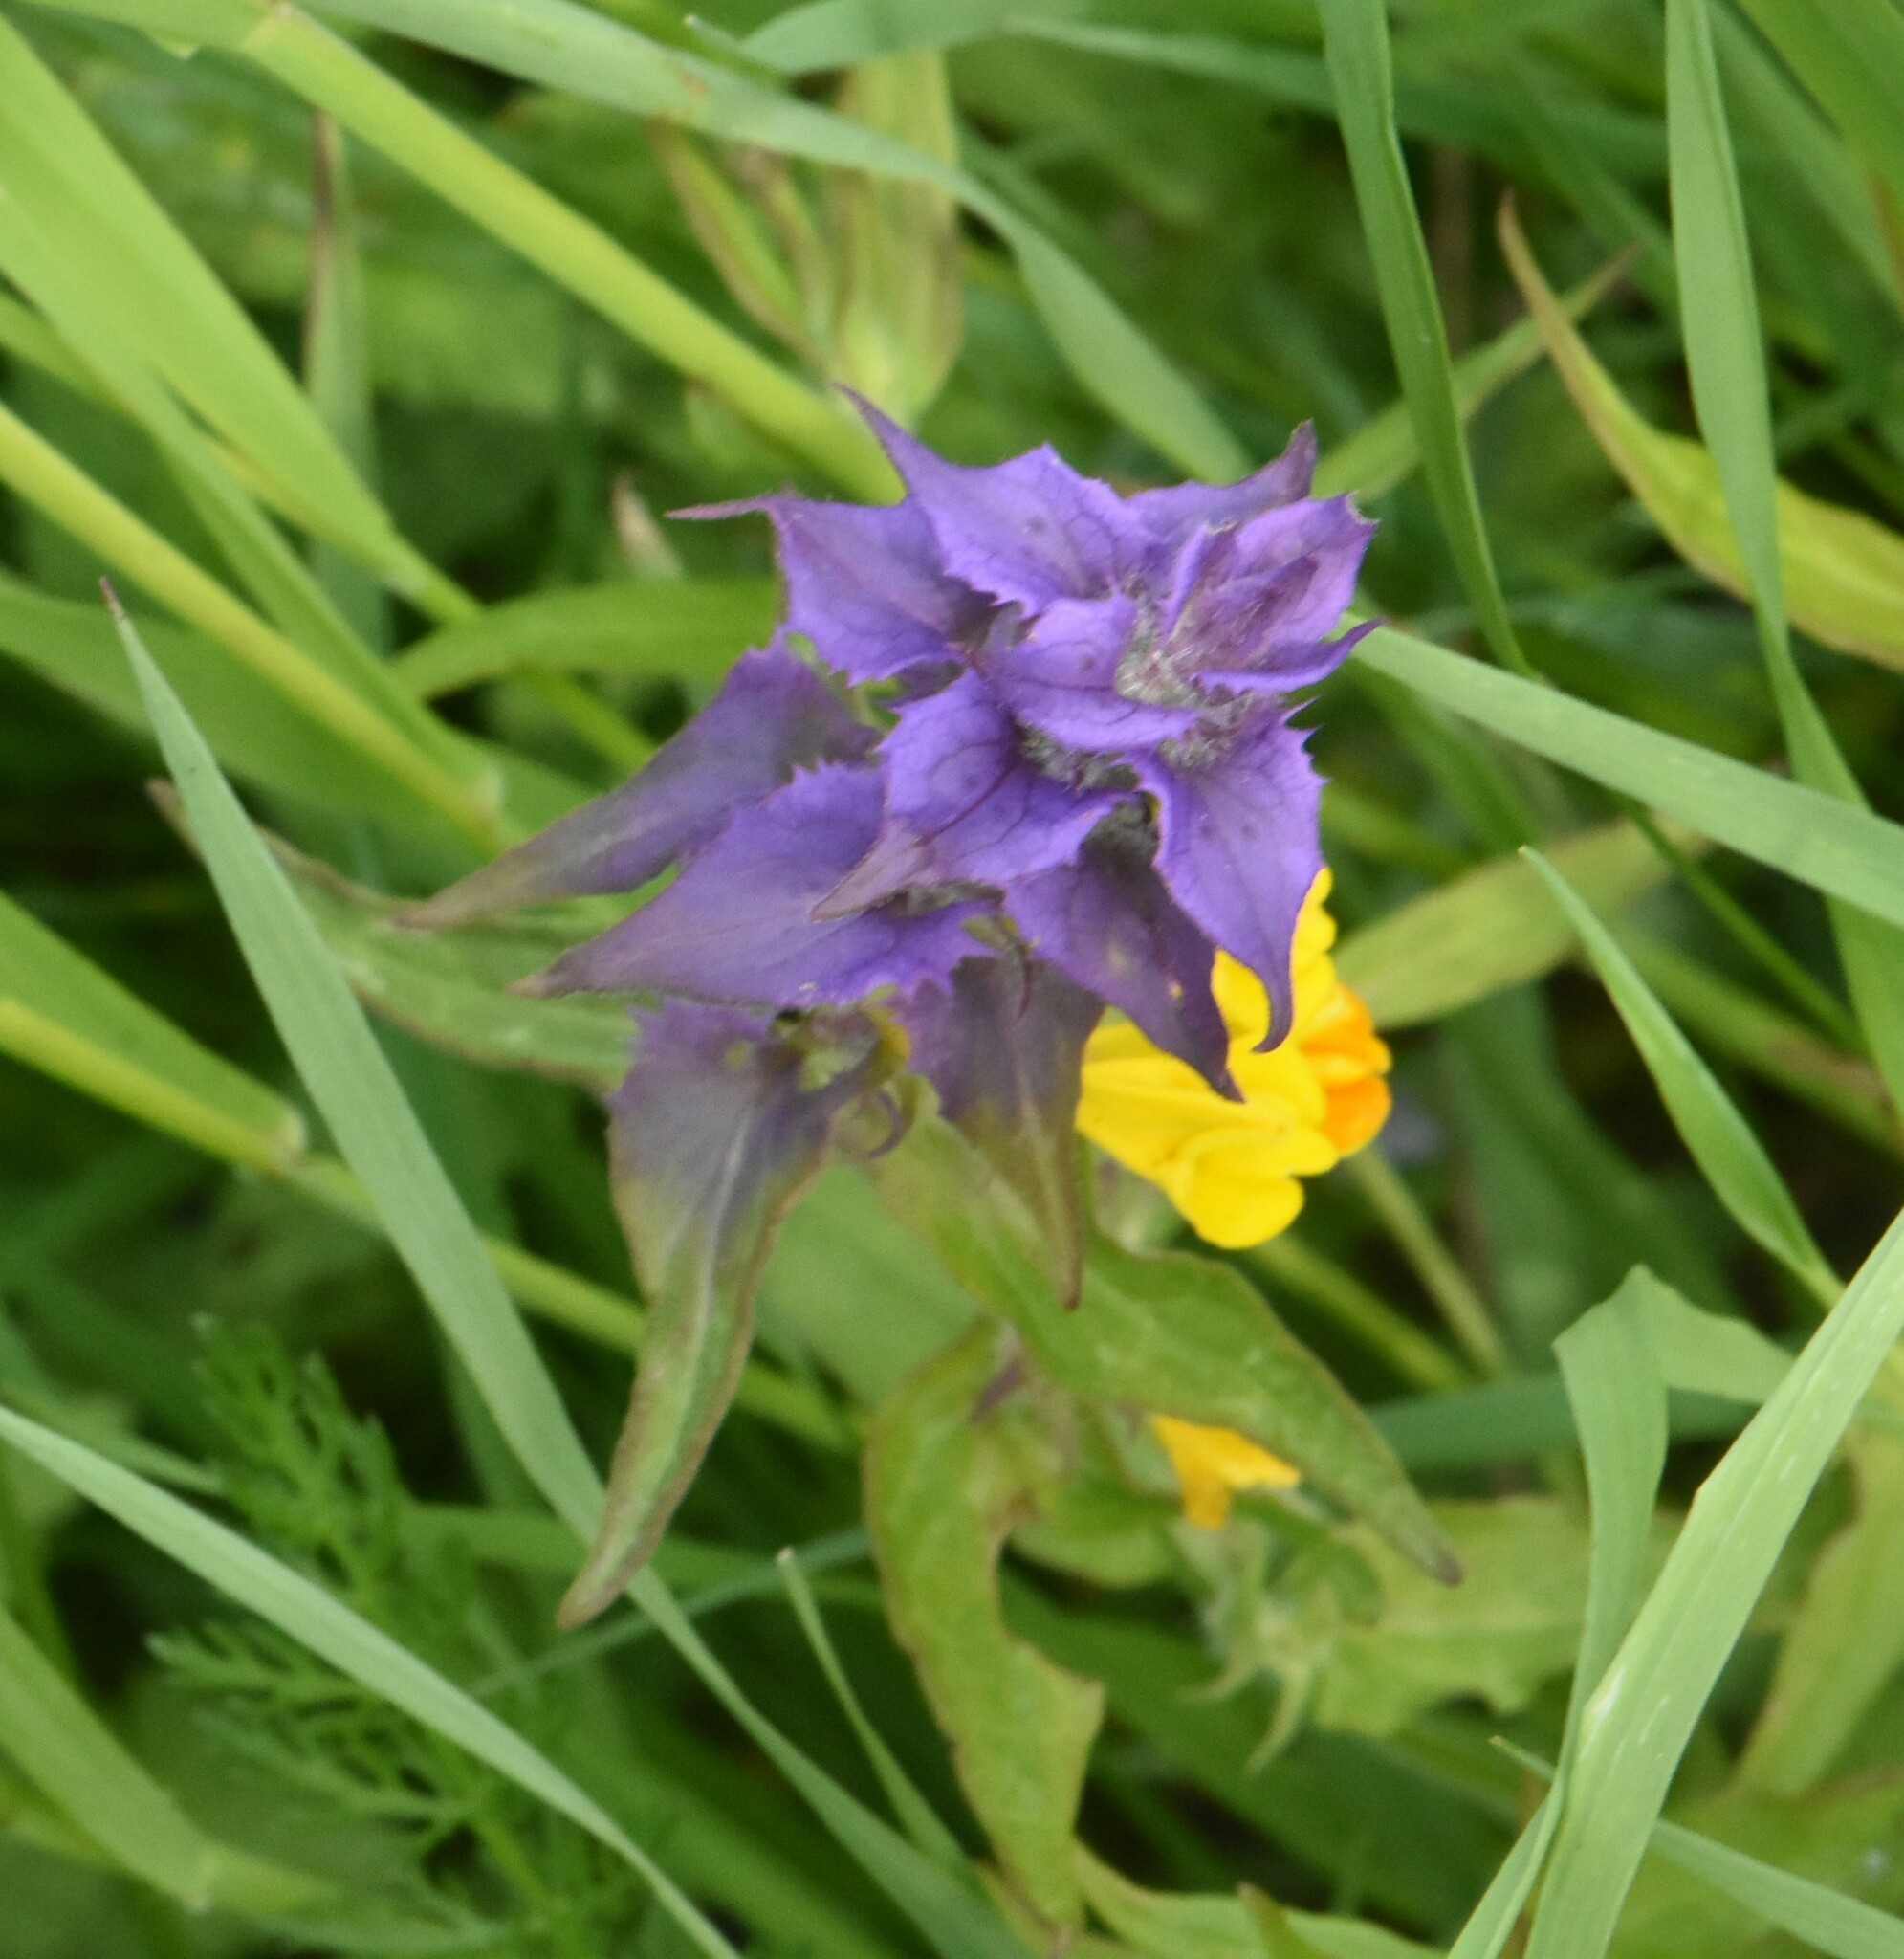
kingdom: Plantae
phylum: Tracheophyta
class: Magnoliopsida
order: Lamiales
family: Orobanchaceae
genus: Melampyrum
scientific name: Melampyrum nemorosum
